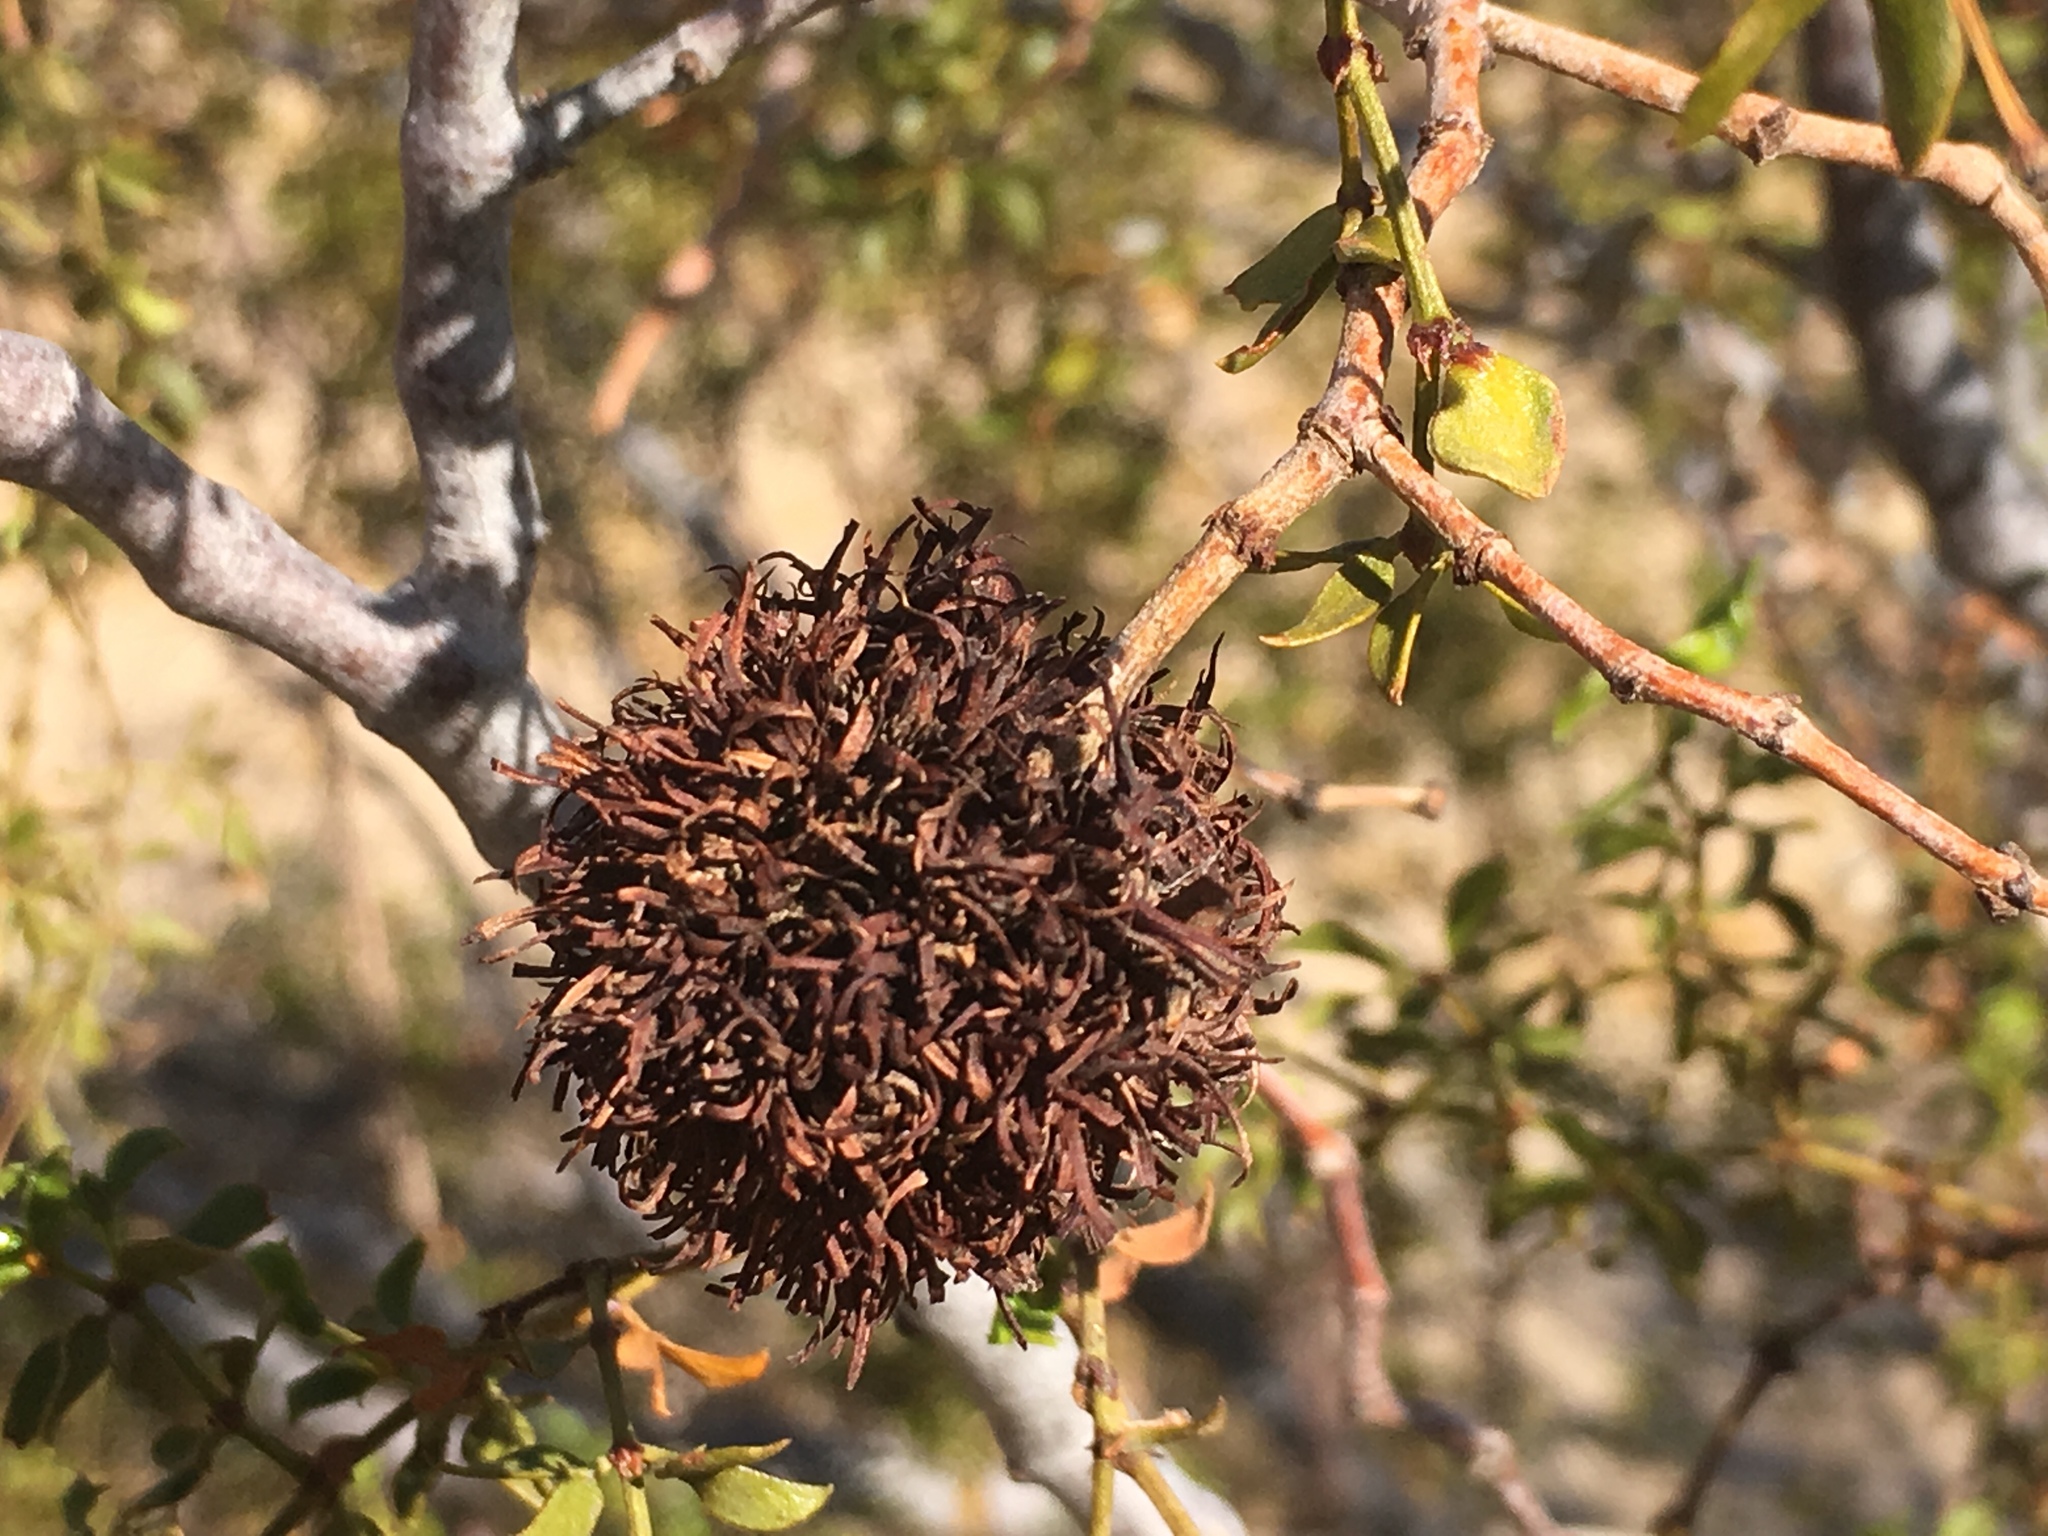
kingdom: Animalia
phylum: Arthropoda
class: Insecta
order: Diptera
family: Cecidomyiidae
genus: Asphondylia
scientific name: Asphondylia auripila
